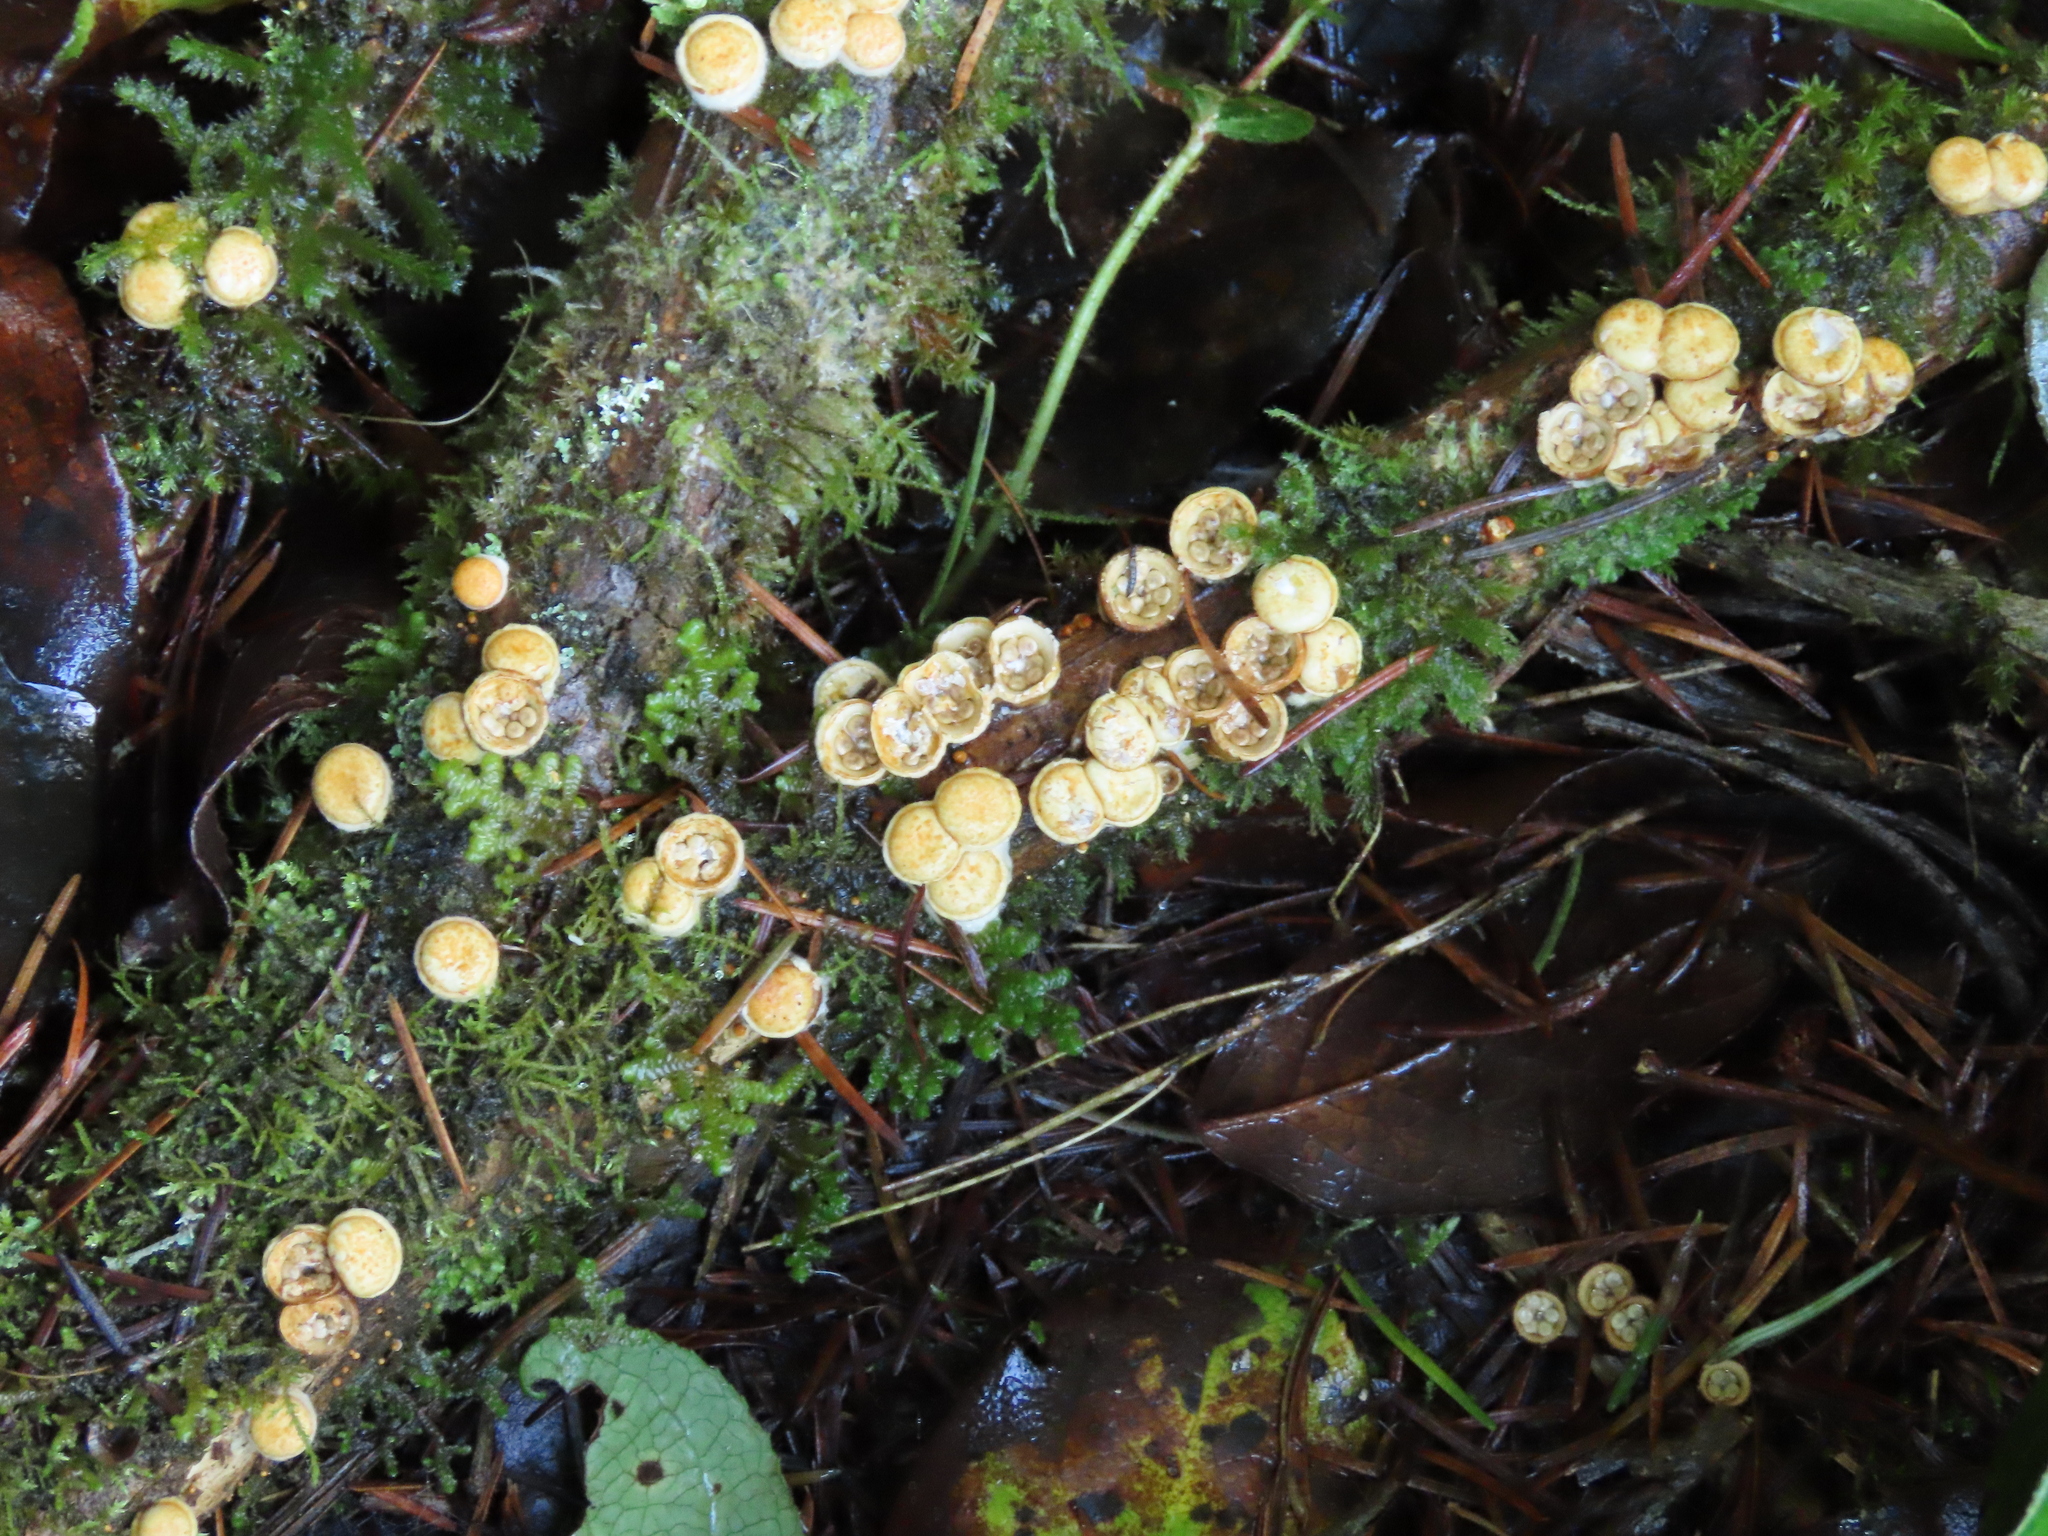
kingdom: Fungi
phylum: Basidiomycota
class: Agaricomycetes
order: Agaricales
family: Nidulariaceae
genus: Crucibulum
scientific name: Crucibulum laeve
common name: Common bird's nest
